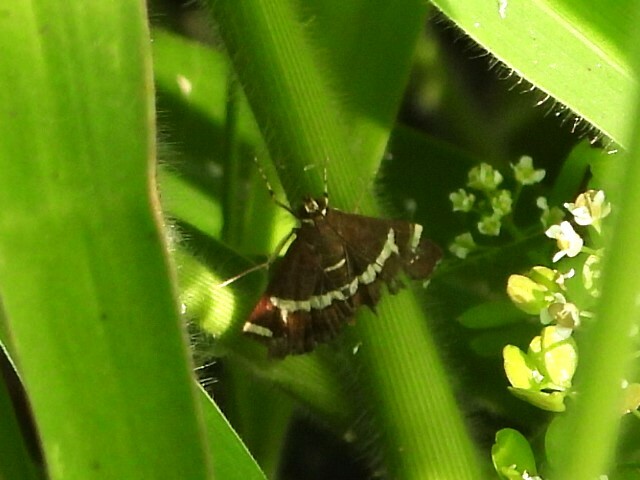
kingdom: Animalia
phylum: Arthropoda
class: Insecta
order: Lepidoptera
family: Crambidae
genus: Spoladea
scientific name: Spoladea recurvalis
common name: Beet webworm moth
